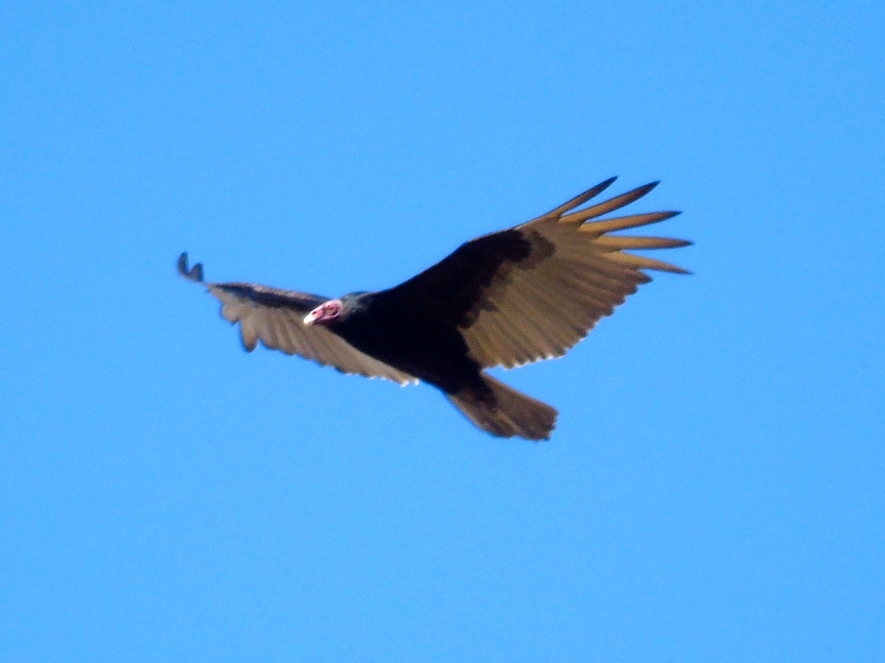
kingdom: Animalia
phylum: Chordata
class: Aves
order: Accipitriformes
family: Cathartidae
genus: Cathartes
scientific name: Cathartes aura
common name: Turkey vulture
